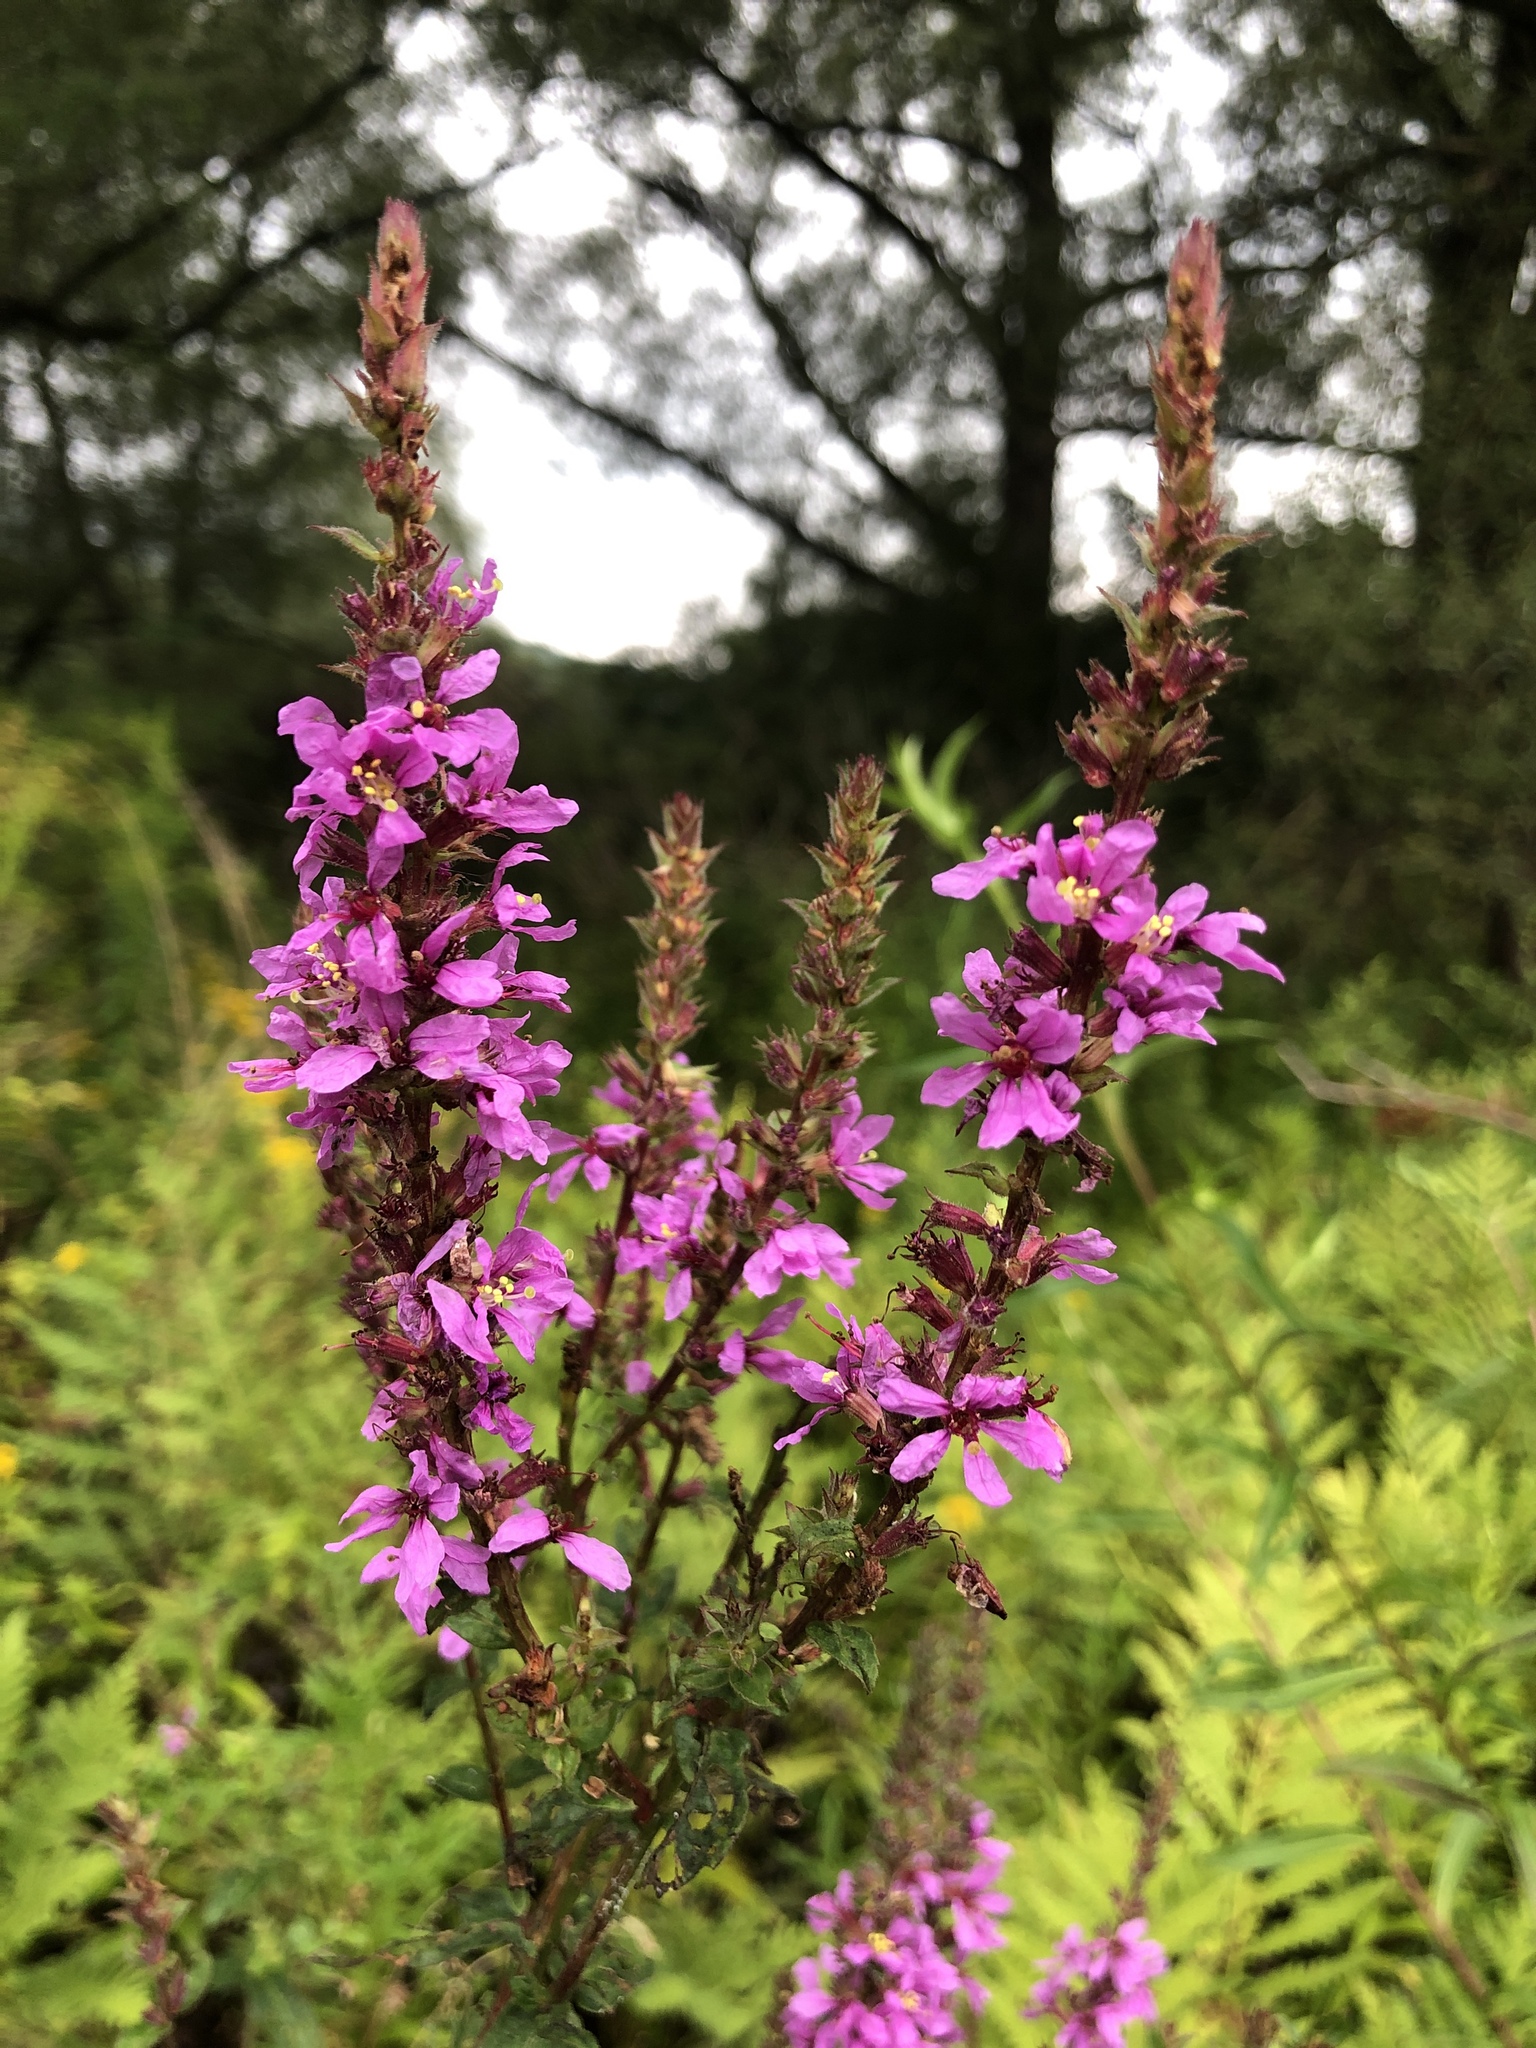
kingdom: Plantae
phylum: Tracheophyta
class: Magnoliopsida
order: Myrtales
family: Lythraceae
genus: Lythrum
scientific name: Lythrum salicaria
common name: Purple loosestrife
